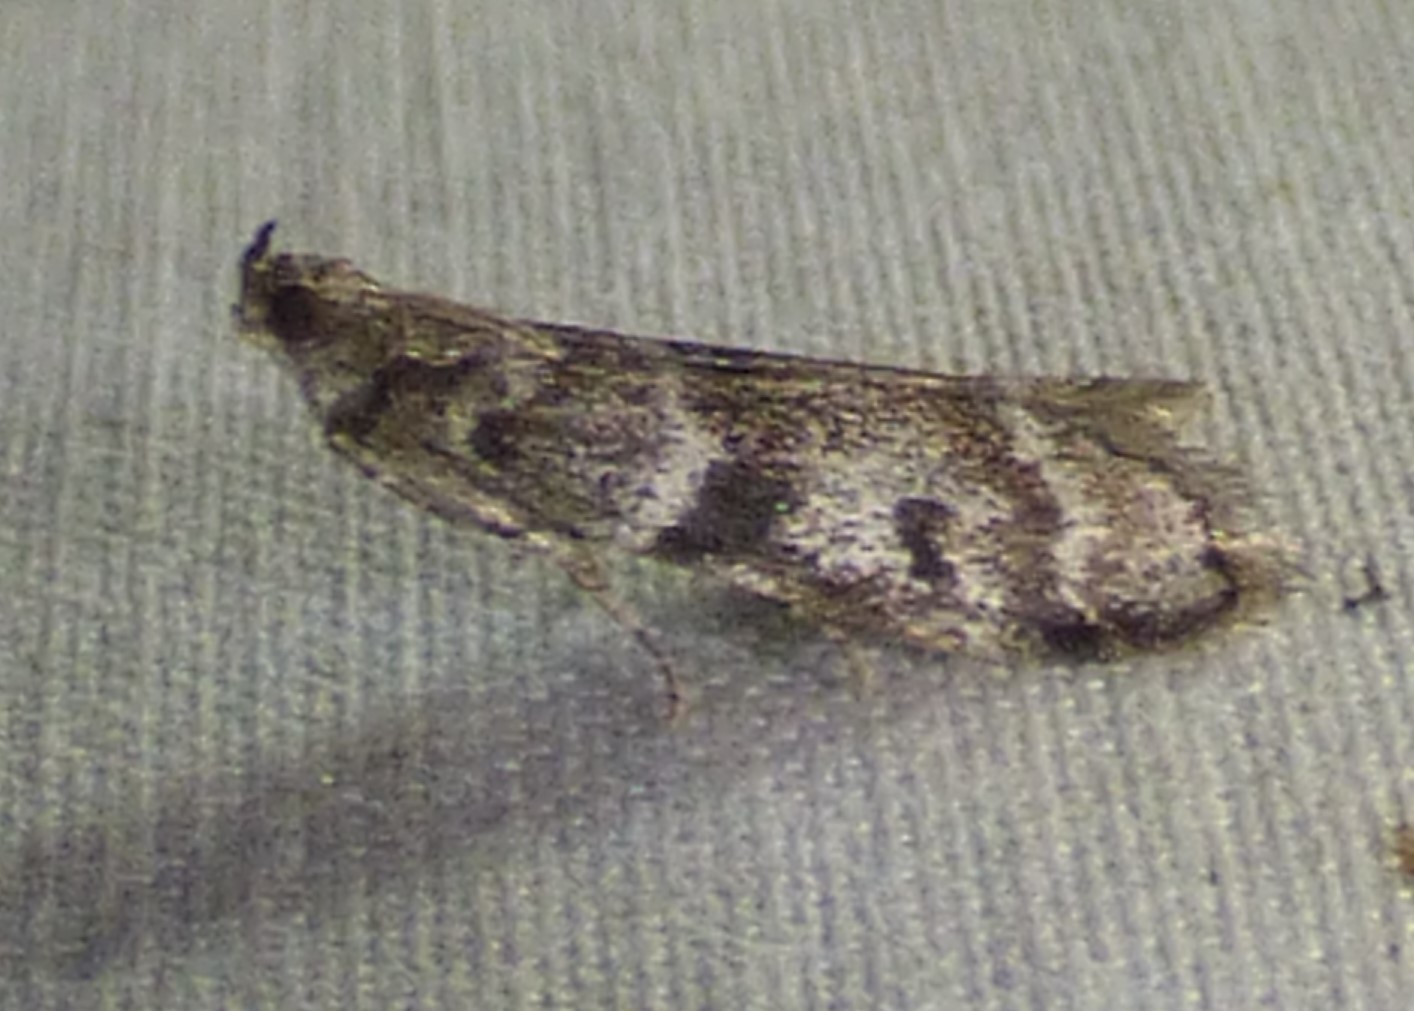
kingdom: Animalia
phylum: Arthropoda
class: Insecta
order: Lepidoptera
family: Pyralidae
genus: Sciota
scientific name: Sciota uvinella
